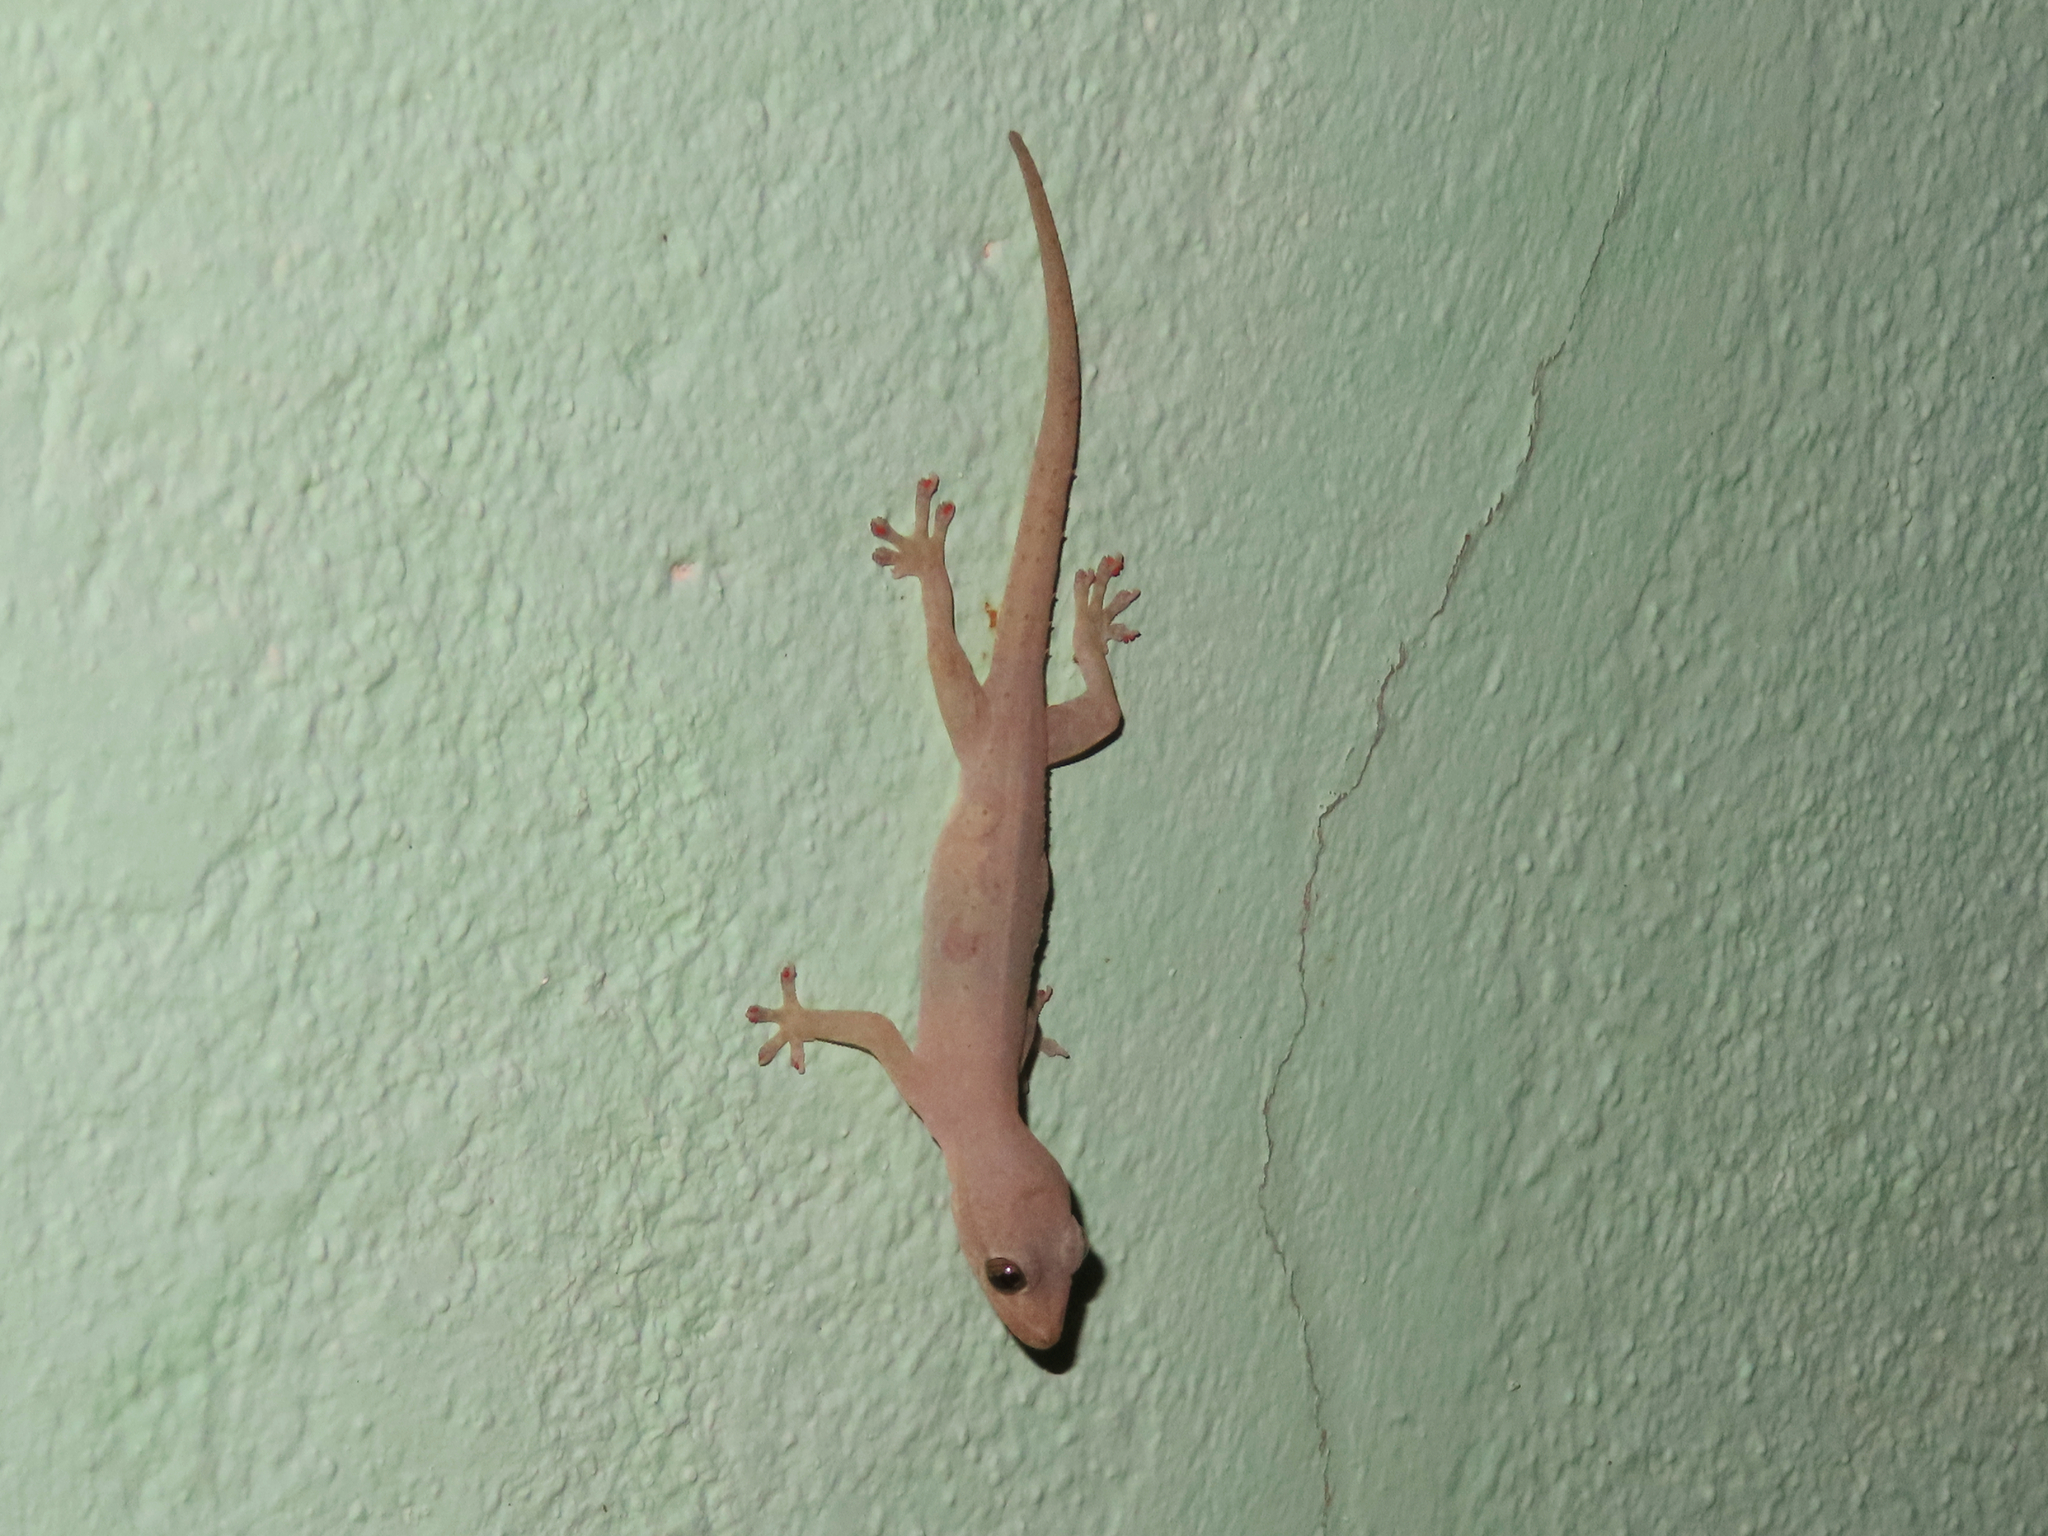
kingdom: Animalia
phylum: Chordata
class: Squamata
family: Gekkonidae
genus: Hemidactylus
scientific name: Hemidactylus frenatus
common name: Common house gecko
